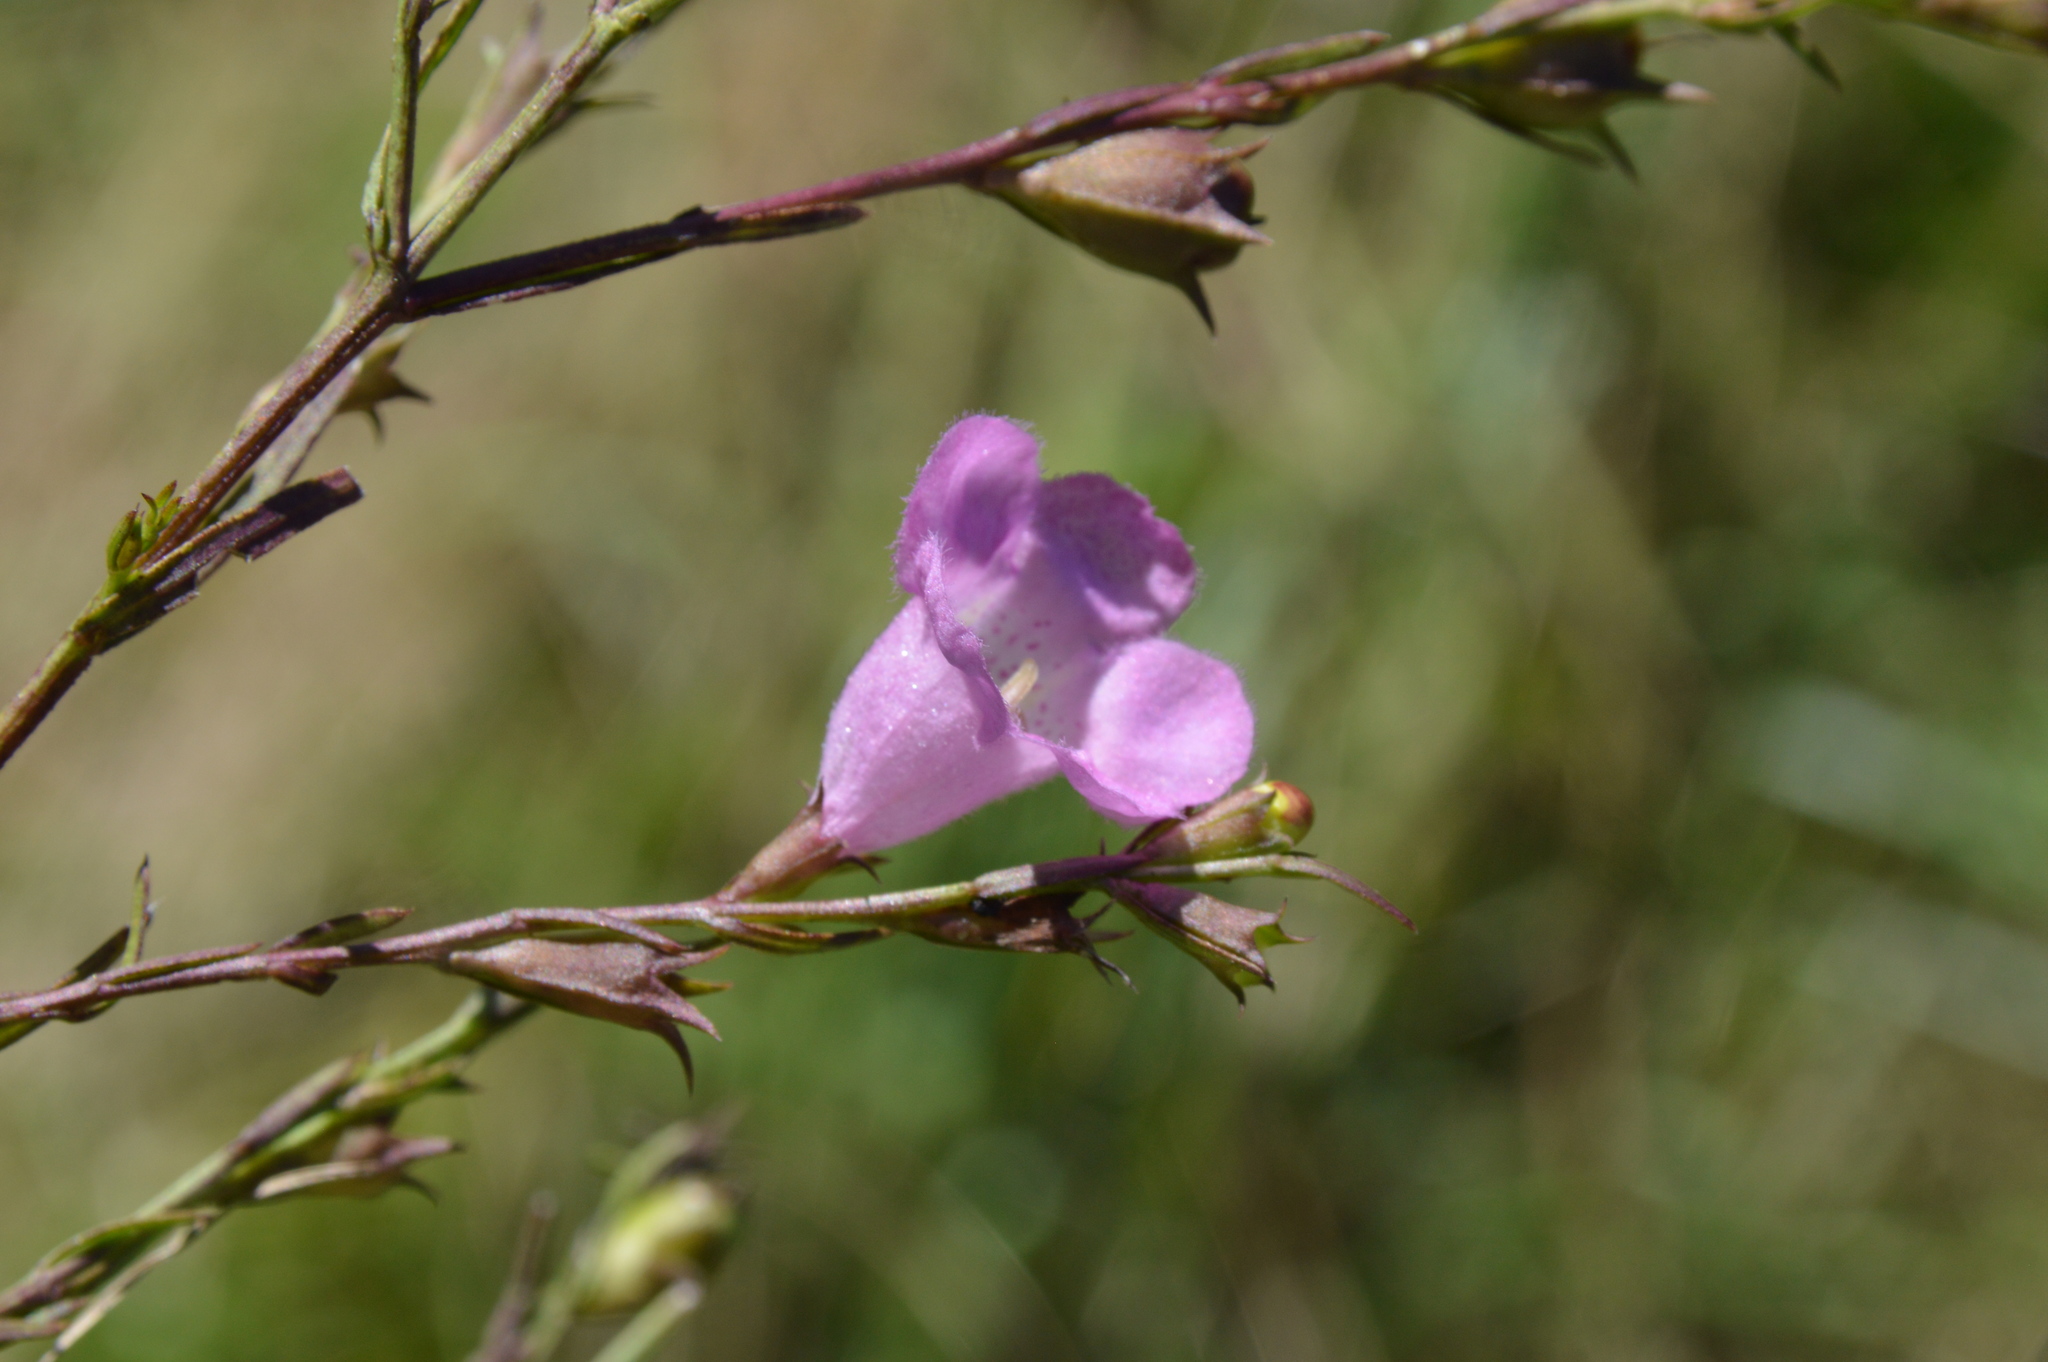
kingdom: Plantae
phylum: Tracheophyta
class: Magnoliopsida
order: Lamiales
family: Orobanchaceae
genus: Agalinis
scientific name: Agalinis heterophylla
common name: Prairie agalinis
